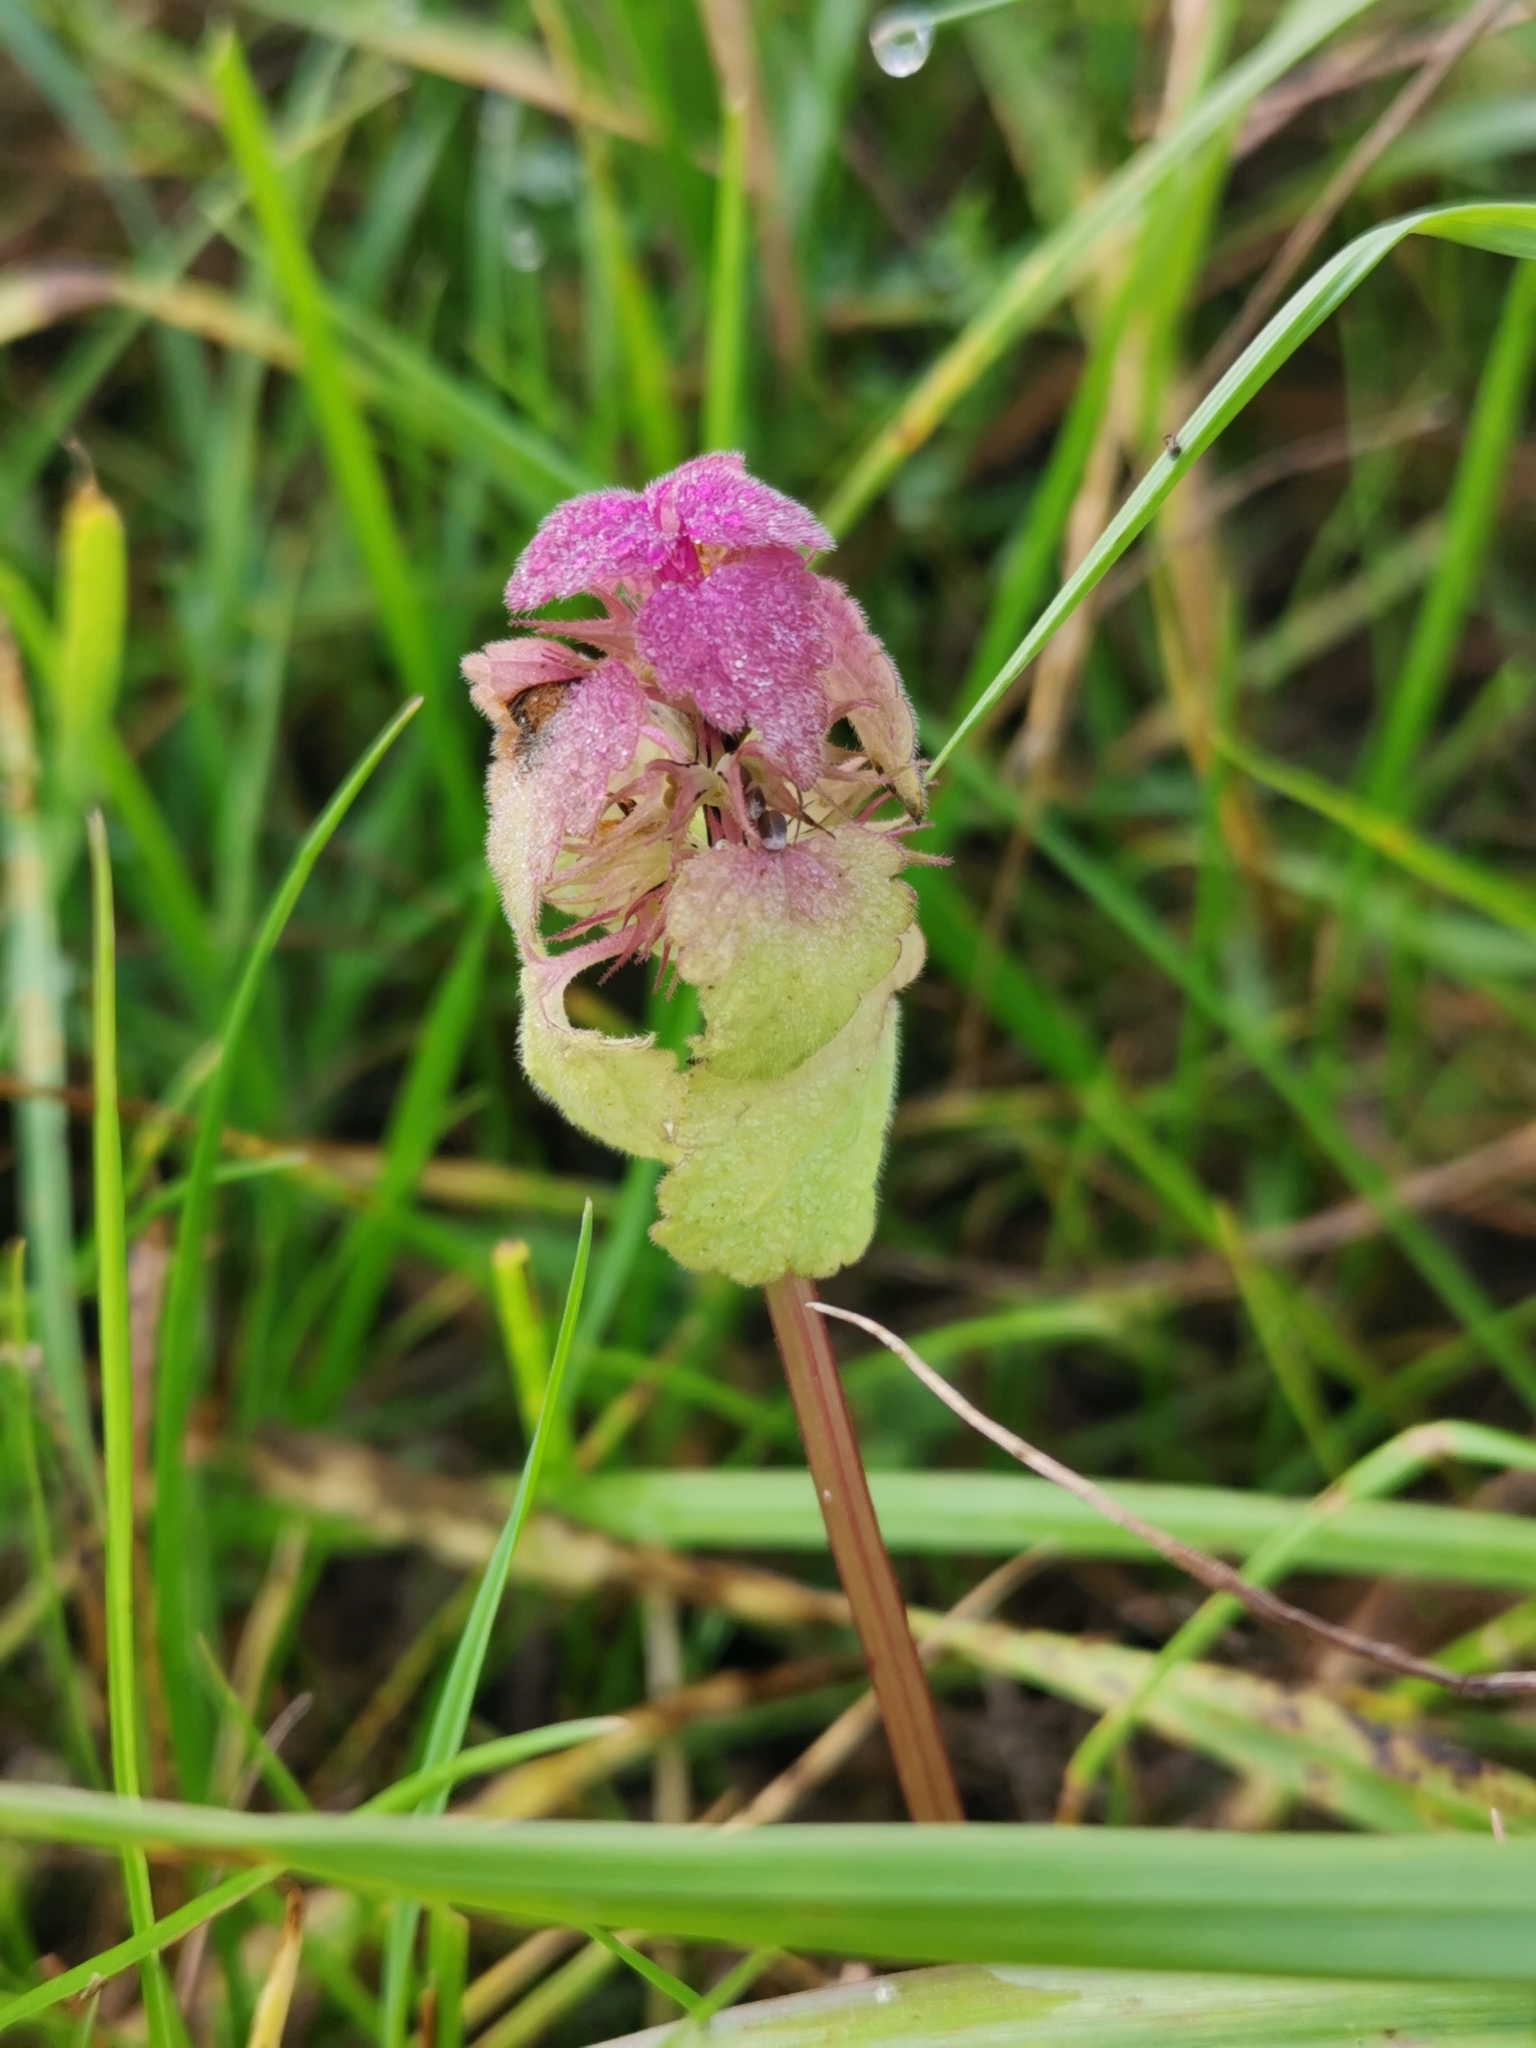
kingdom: Plantae
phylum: Tracheophyta
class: Magnoliopsida
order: Lamiales
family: Lamiaceae
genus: Lamium
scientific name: Lamium purpureum
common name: Red dead-nettle
